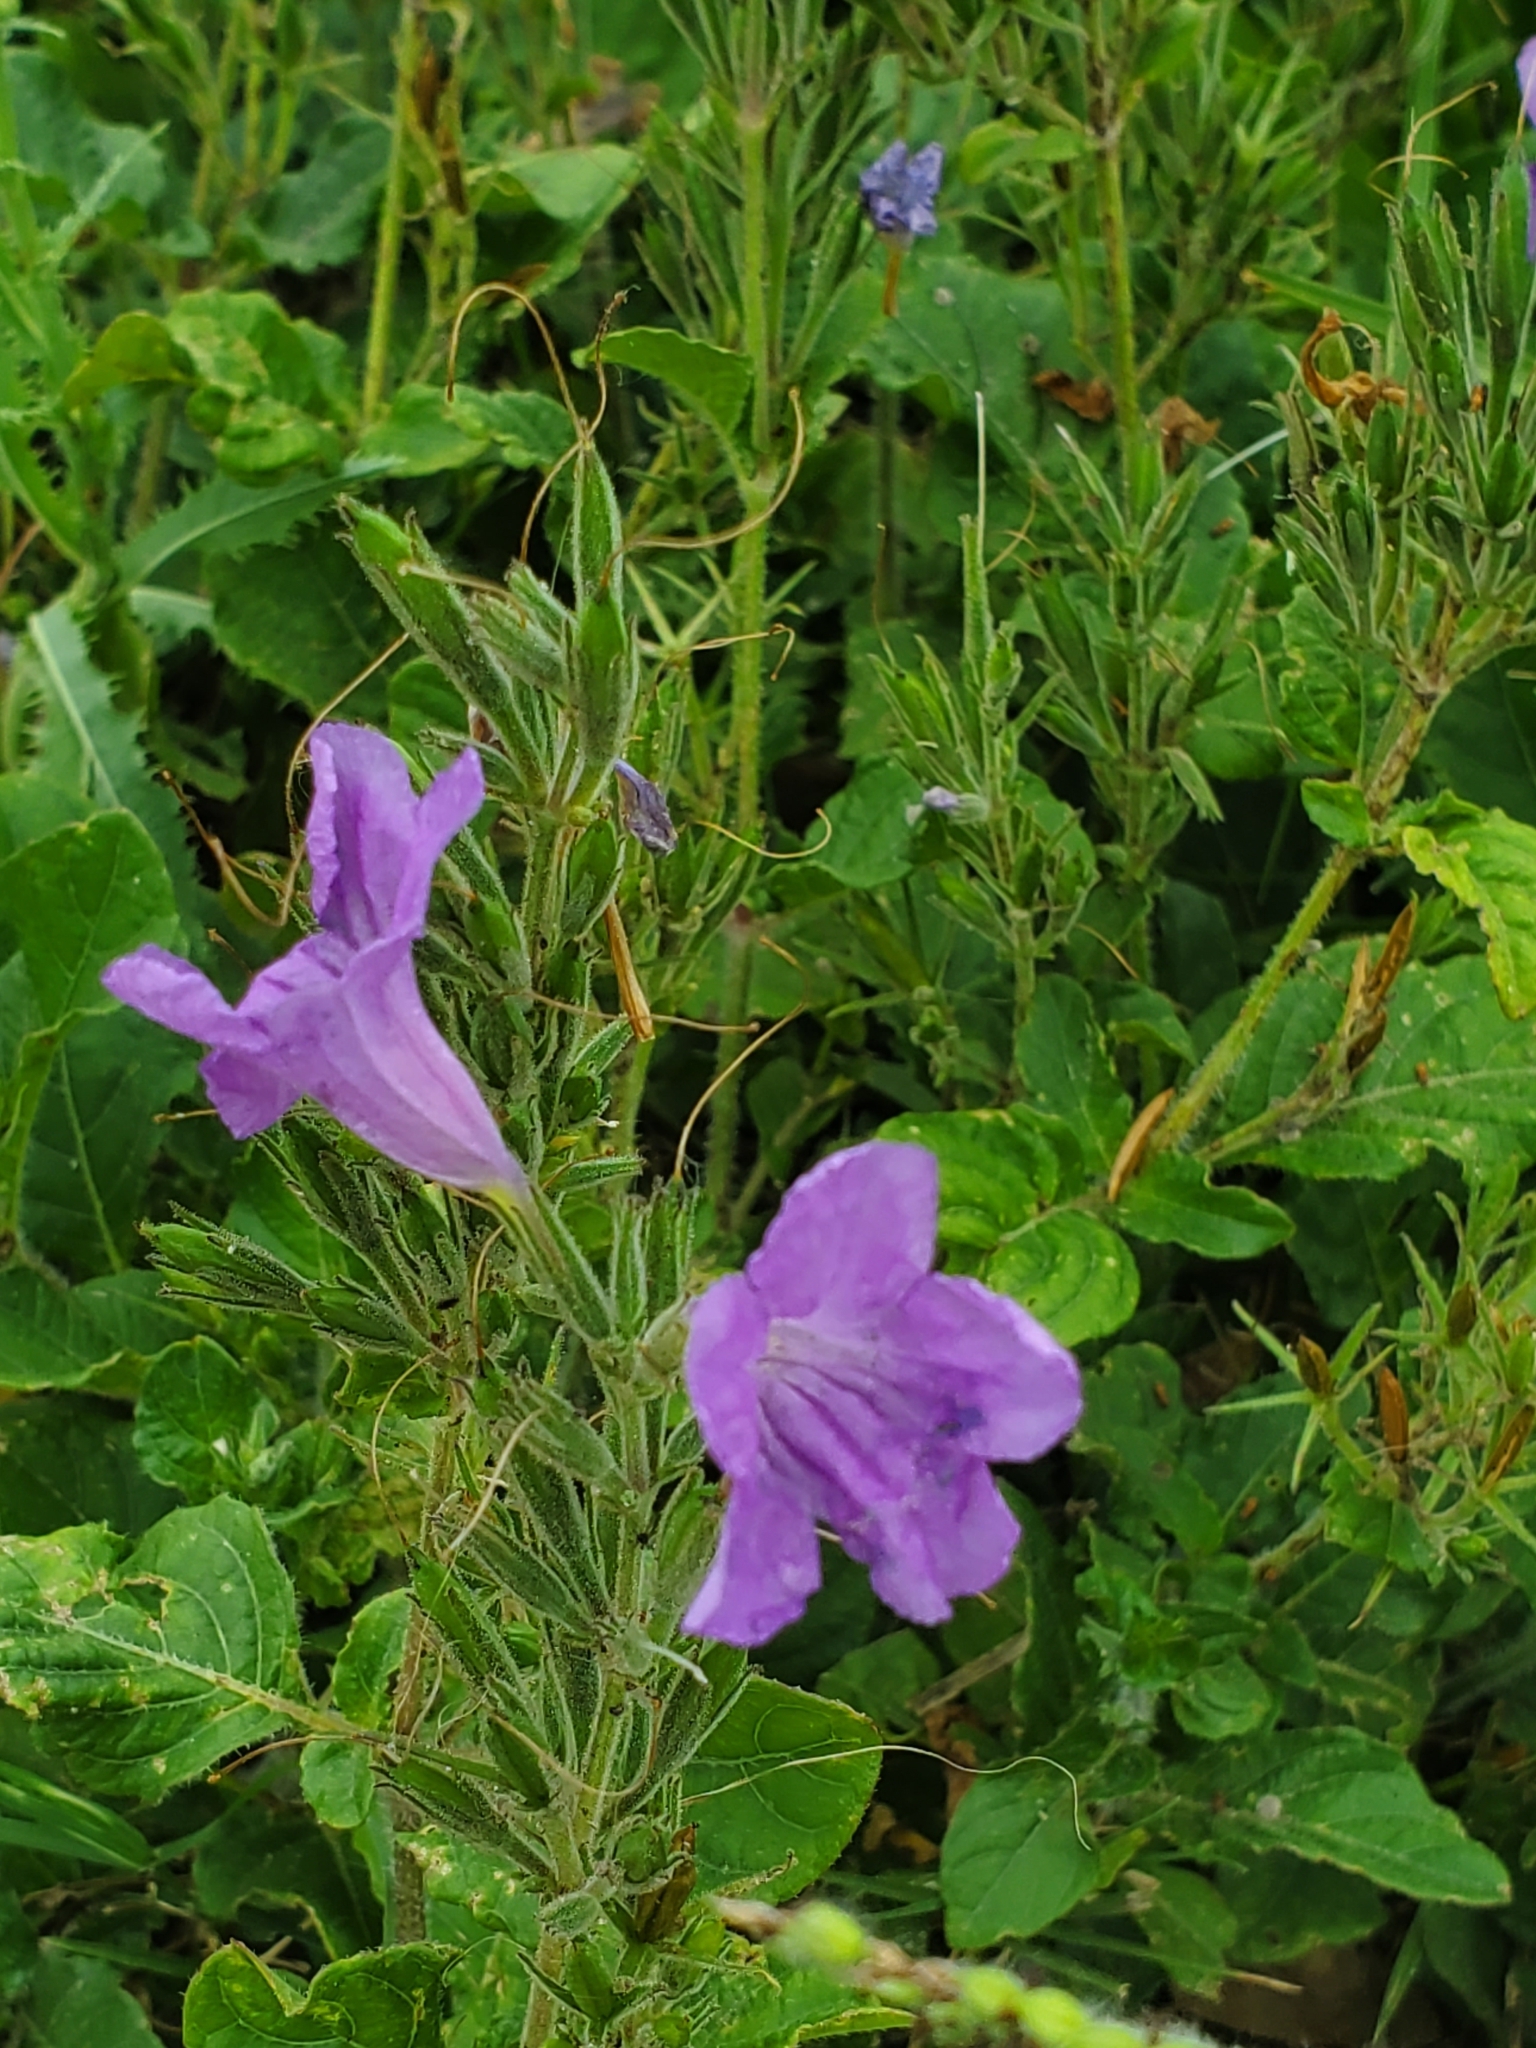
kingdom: Plantae
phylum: Tracheophyta
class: Magnoliopsida
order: Lamiales
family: Acanthaceae
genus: Ruellia
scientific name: Ruellia ciliatiflora
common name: Hairyflower wild petunia
